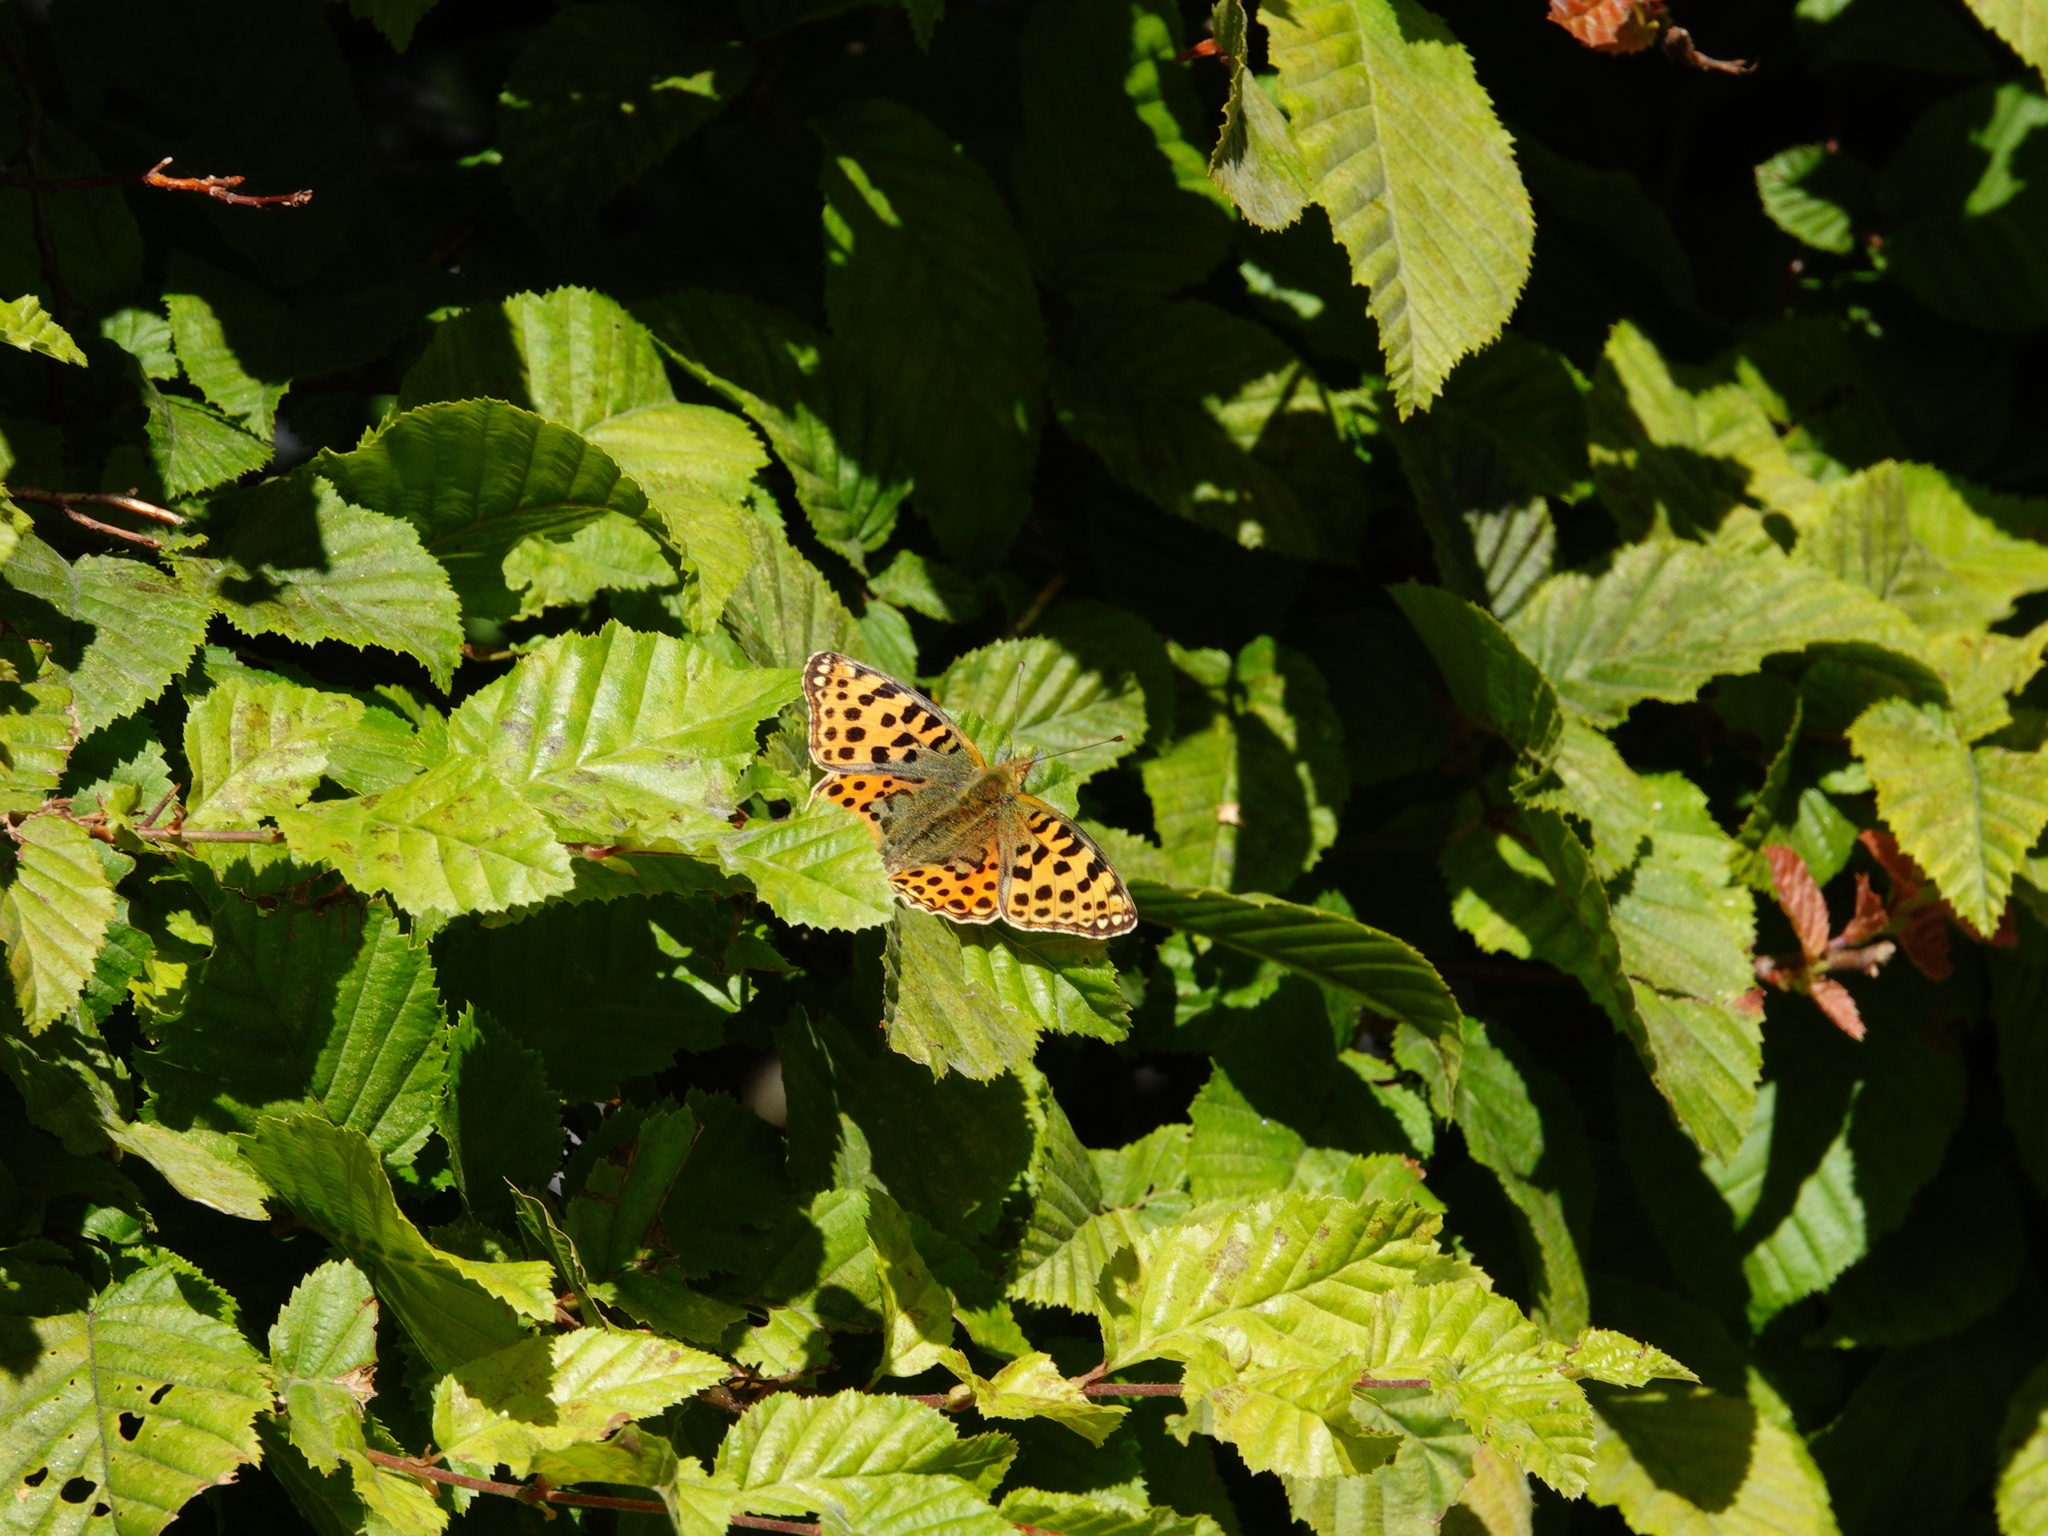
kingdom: Animalia
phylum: Arthropoda
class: Insecta
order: Lepidoptera
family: Nymphalidae
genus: Issoria
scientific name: Issoria lathonia
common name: Queen of spain fritillary
